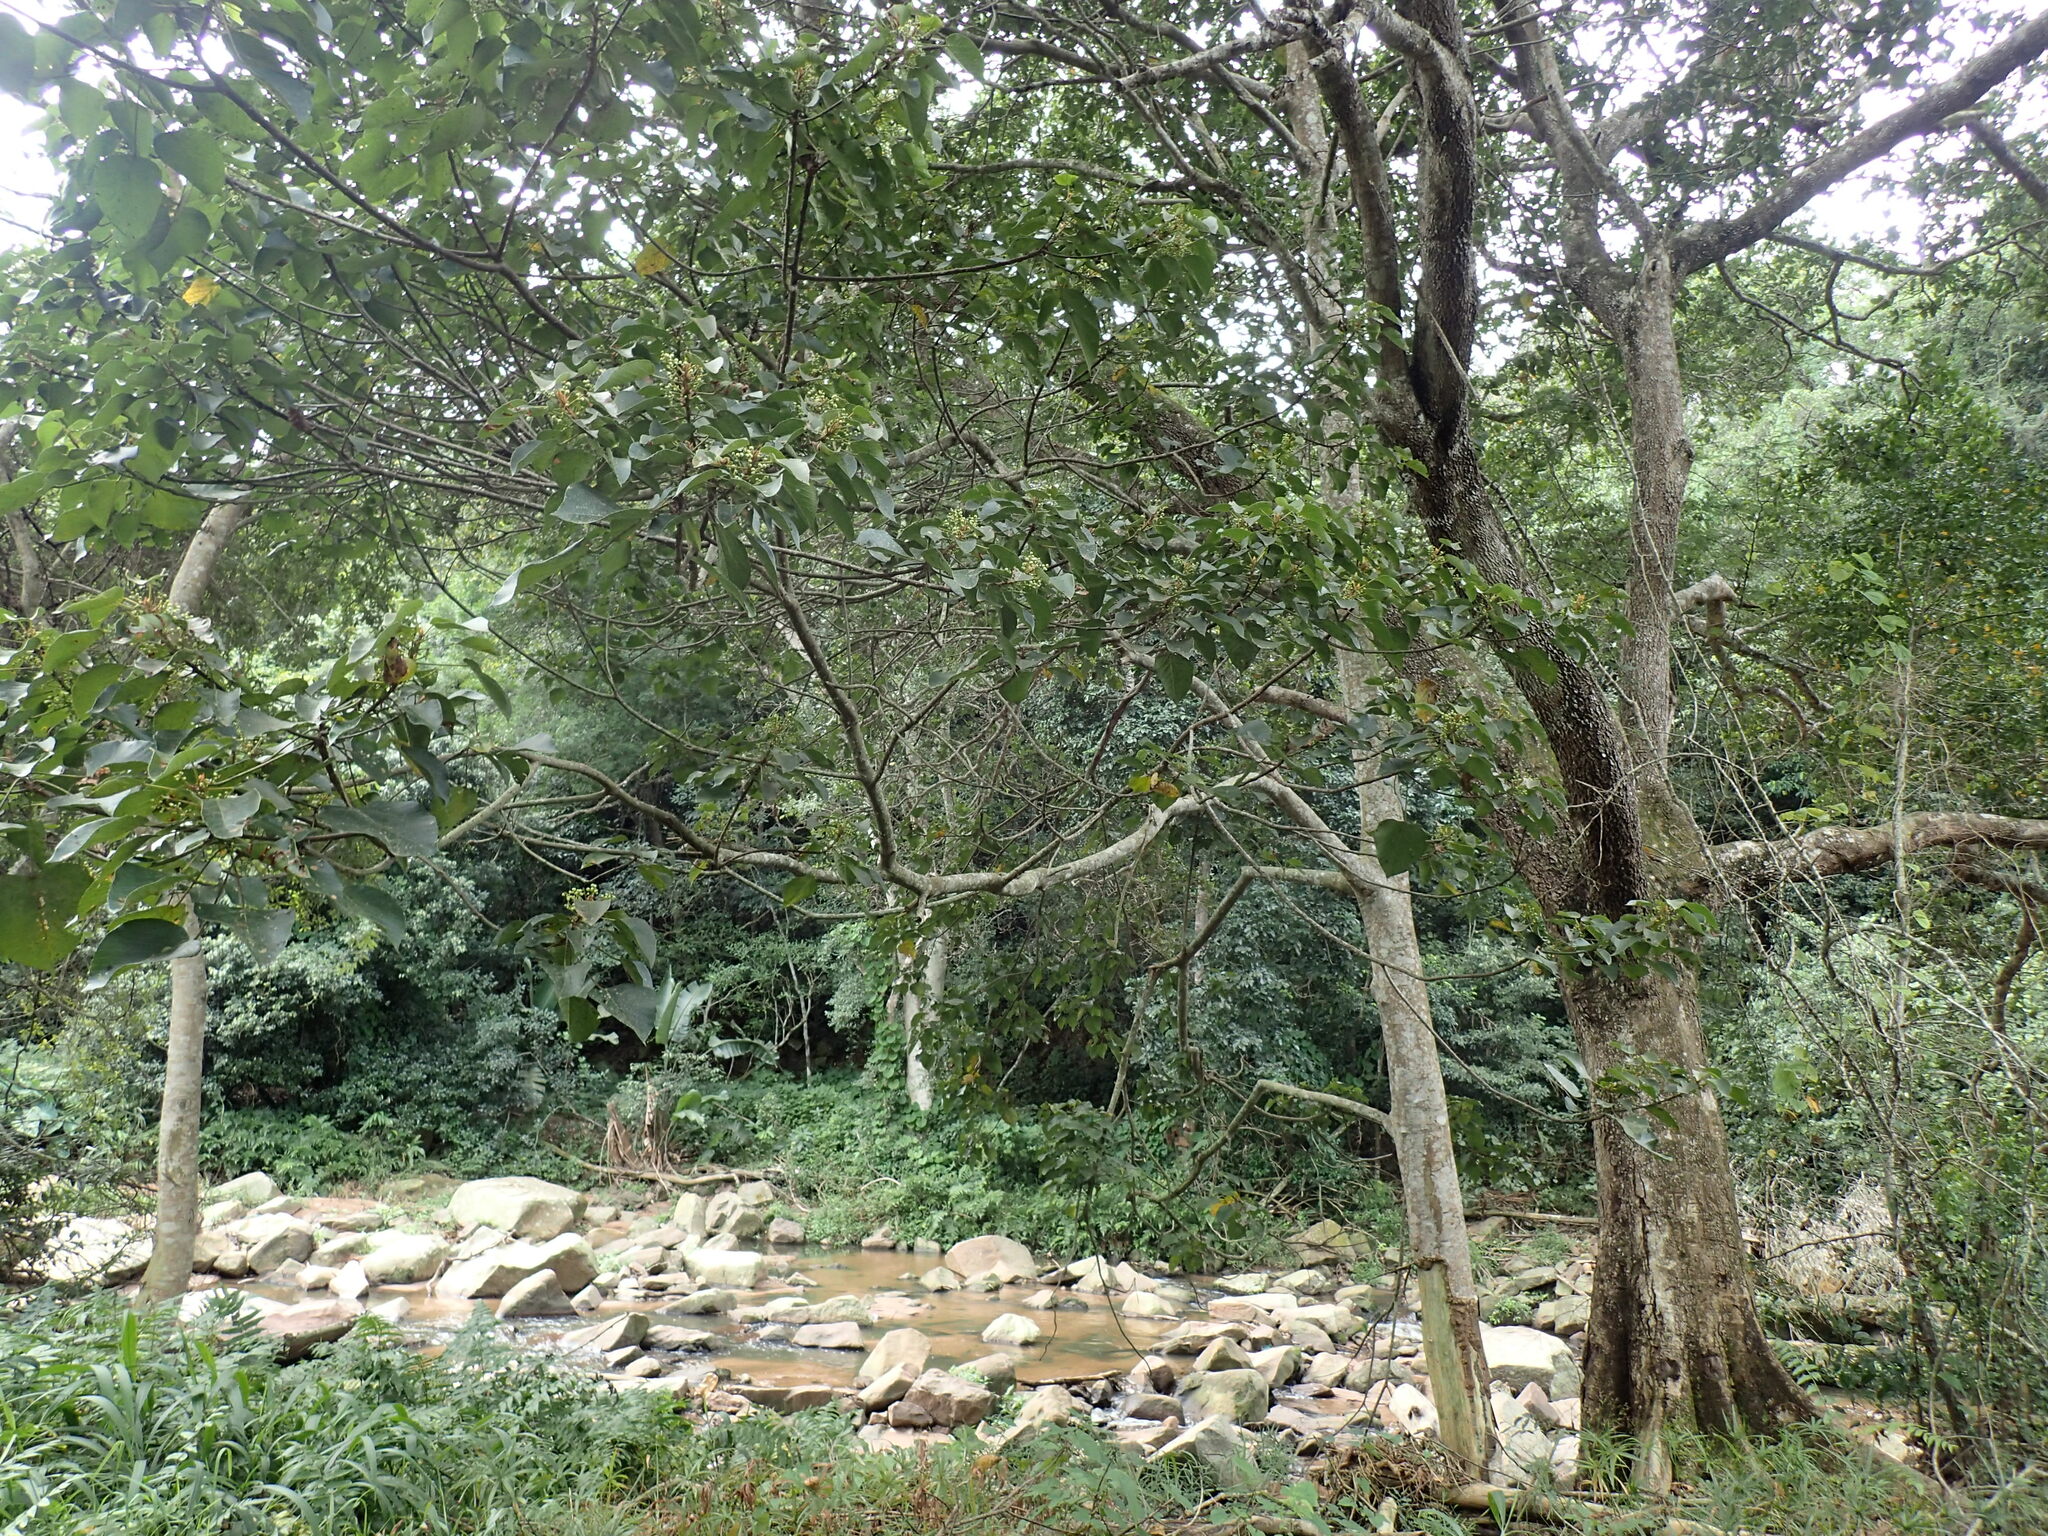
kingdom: Plantae
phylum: Tracheophyta
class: Magnoliopsida
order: Malpighiales
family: Euphorbiaceae
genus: Macaranga
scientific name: Macaranga capensis
